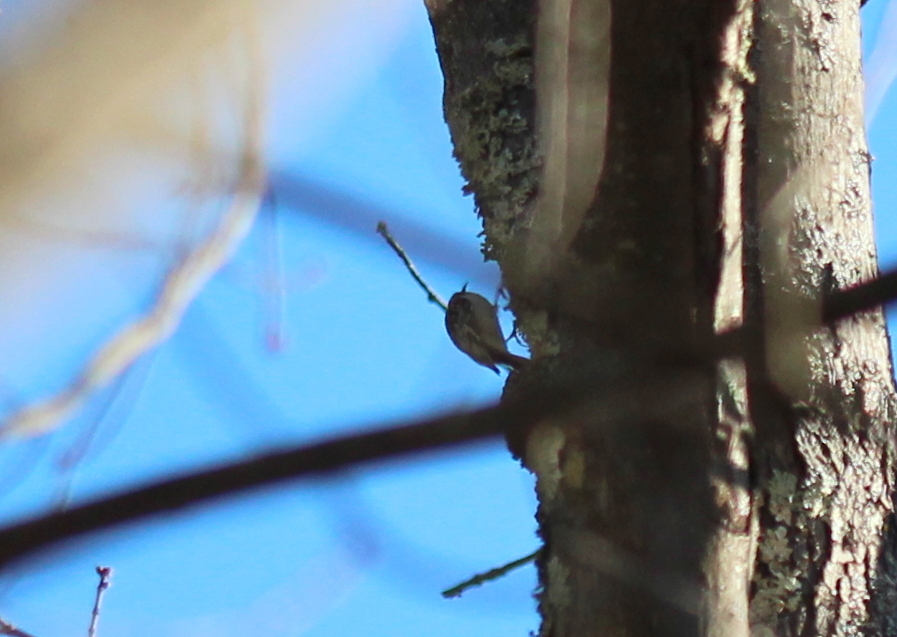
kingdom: Animalia
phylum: Chordata
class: Aves
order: Passeriformes
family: Certhiidae
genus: Certhia
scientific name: Certhia americana
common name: Brown creeper
